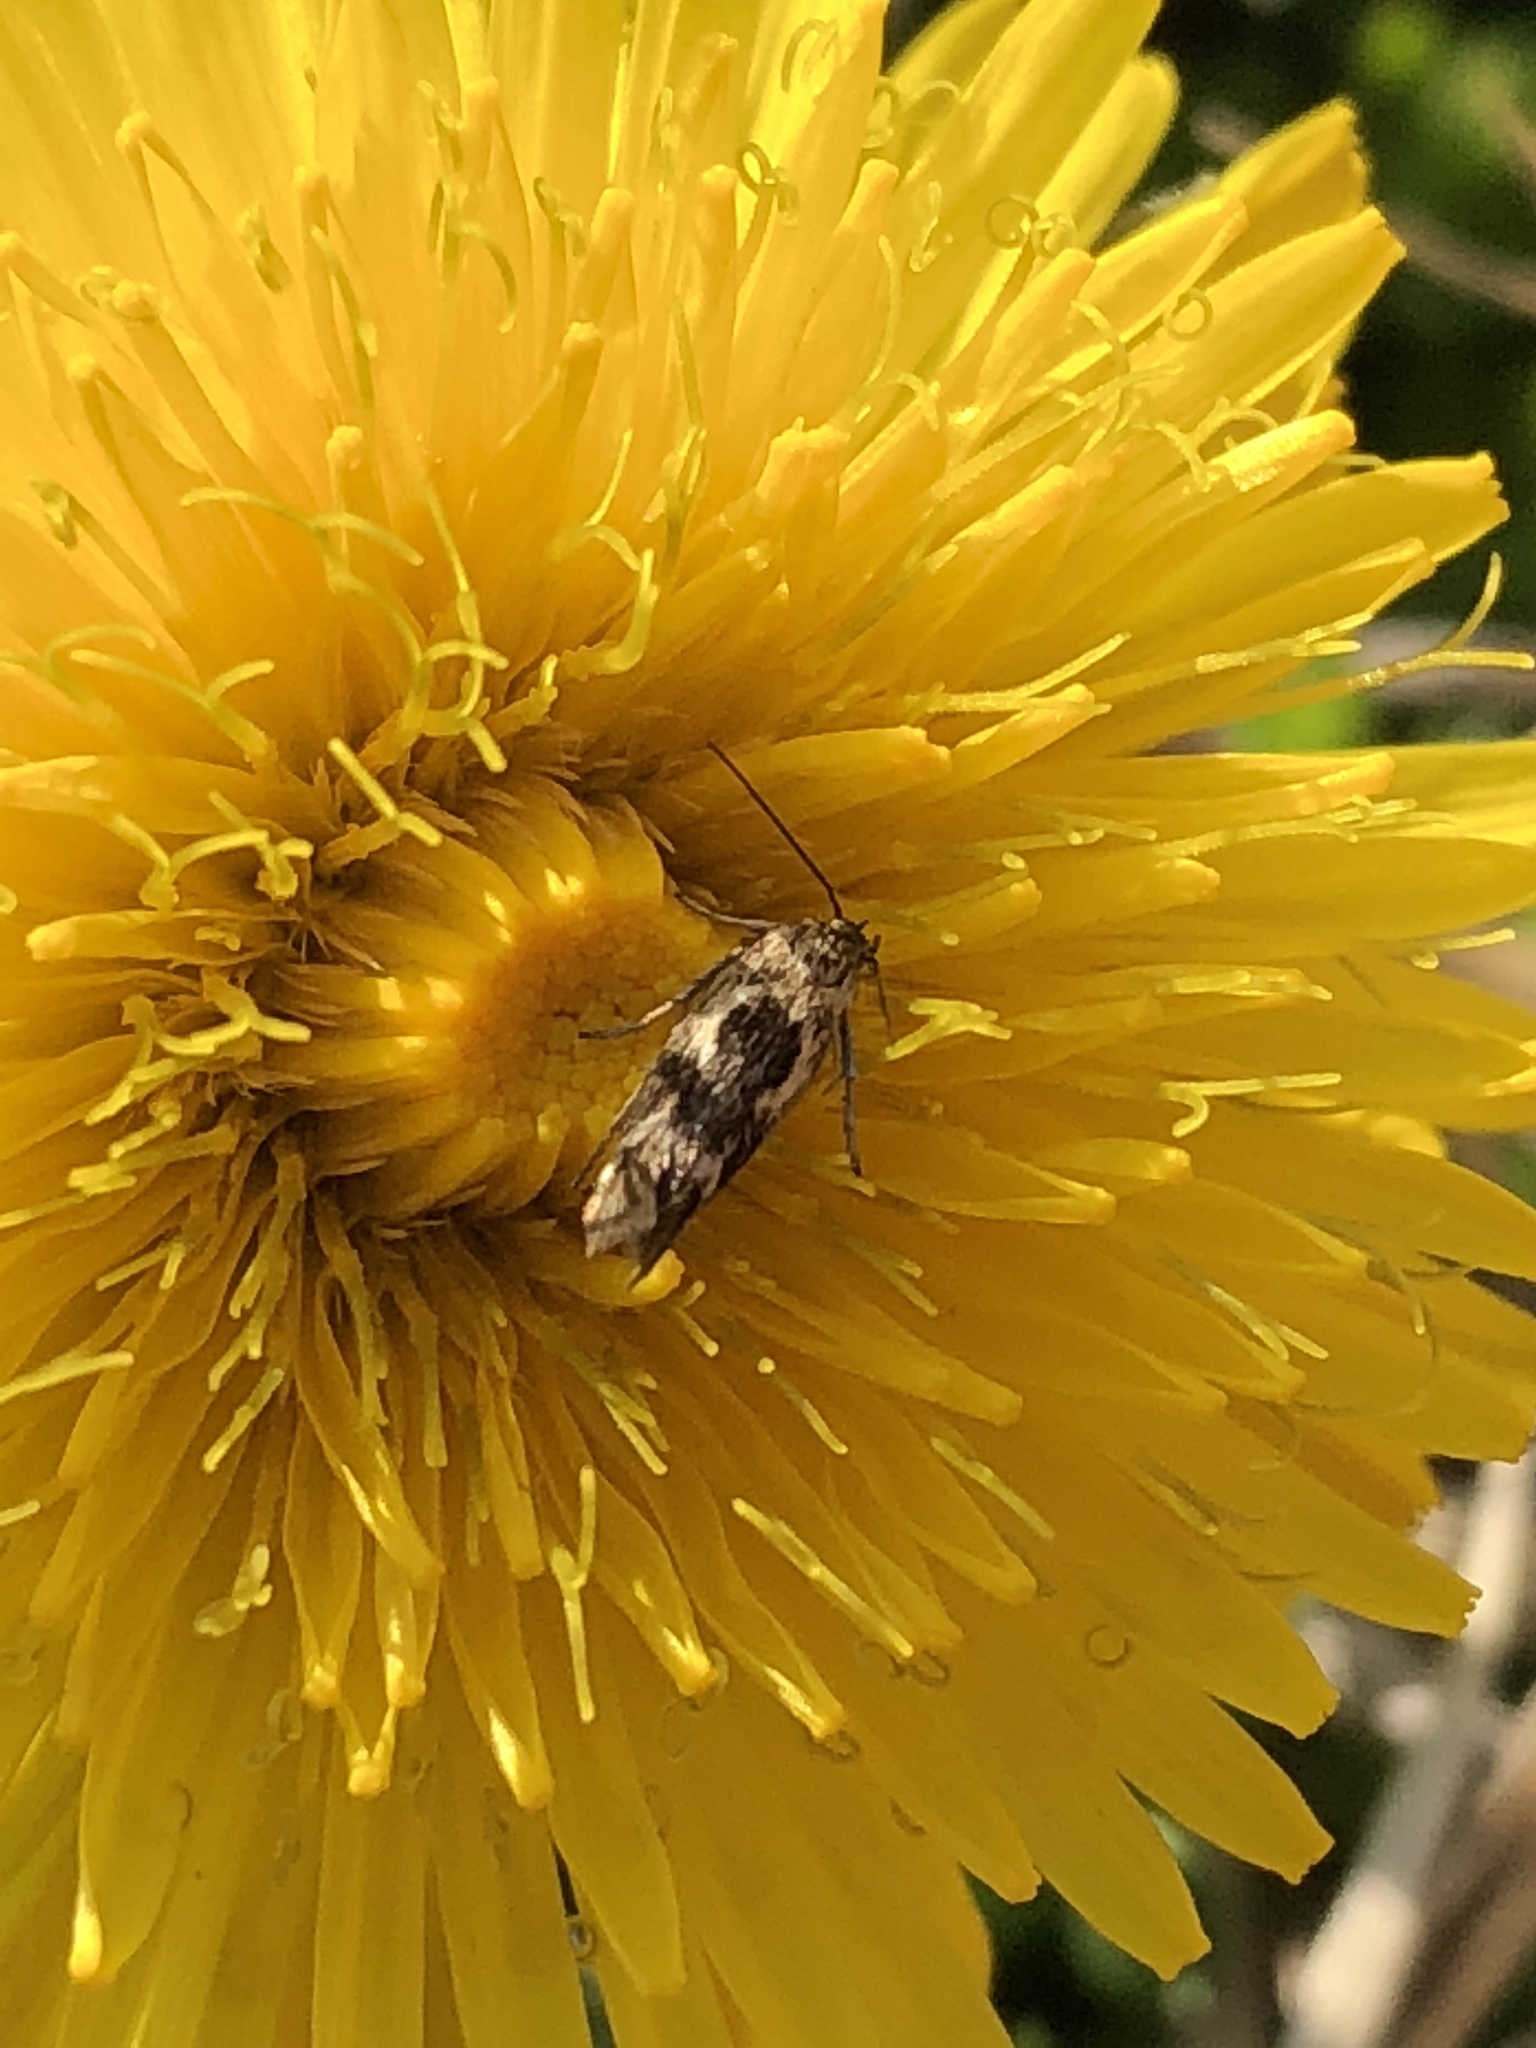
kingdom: Animalia
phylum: Arthropoda
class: Insecta
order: Lepidoptera
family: Scythrididae
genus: Scythris
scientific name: Scythris trivinctella
